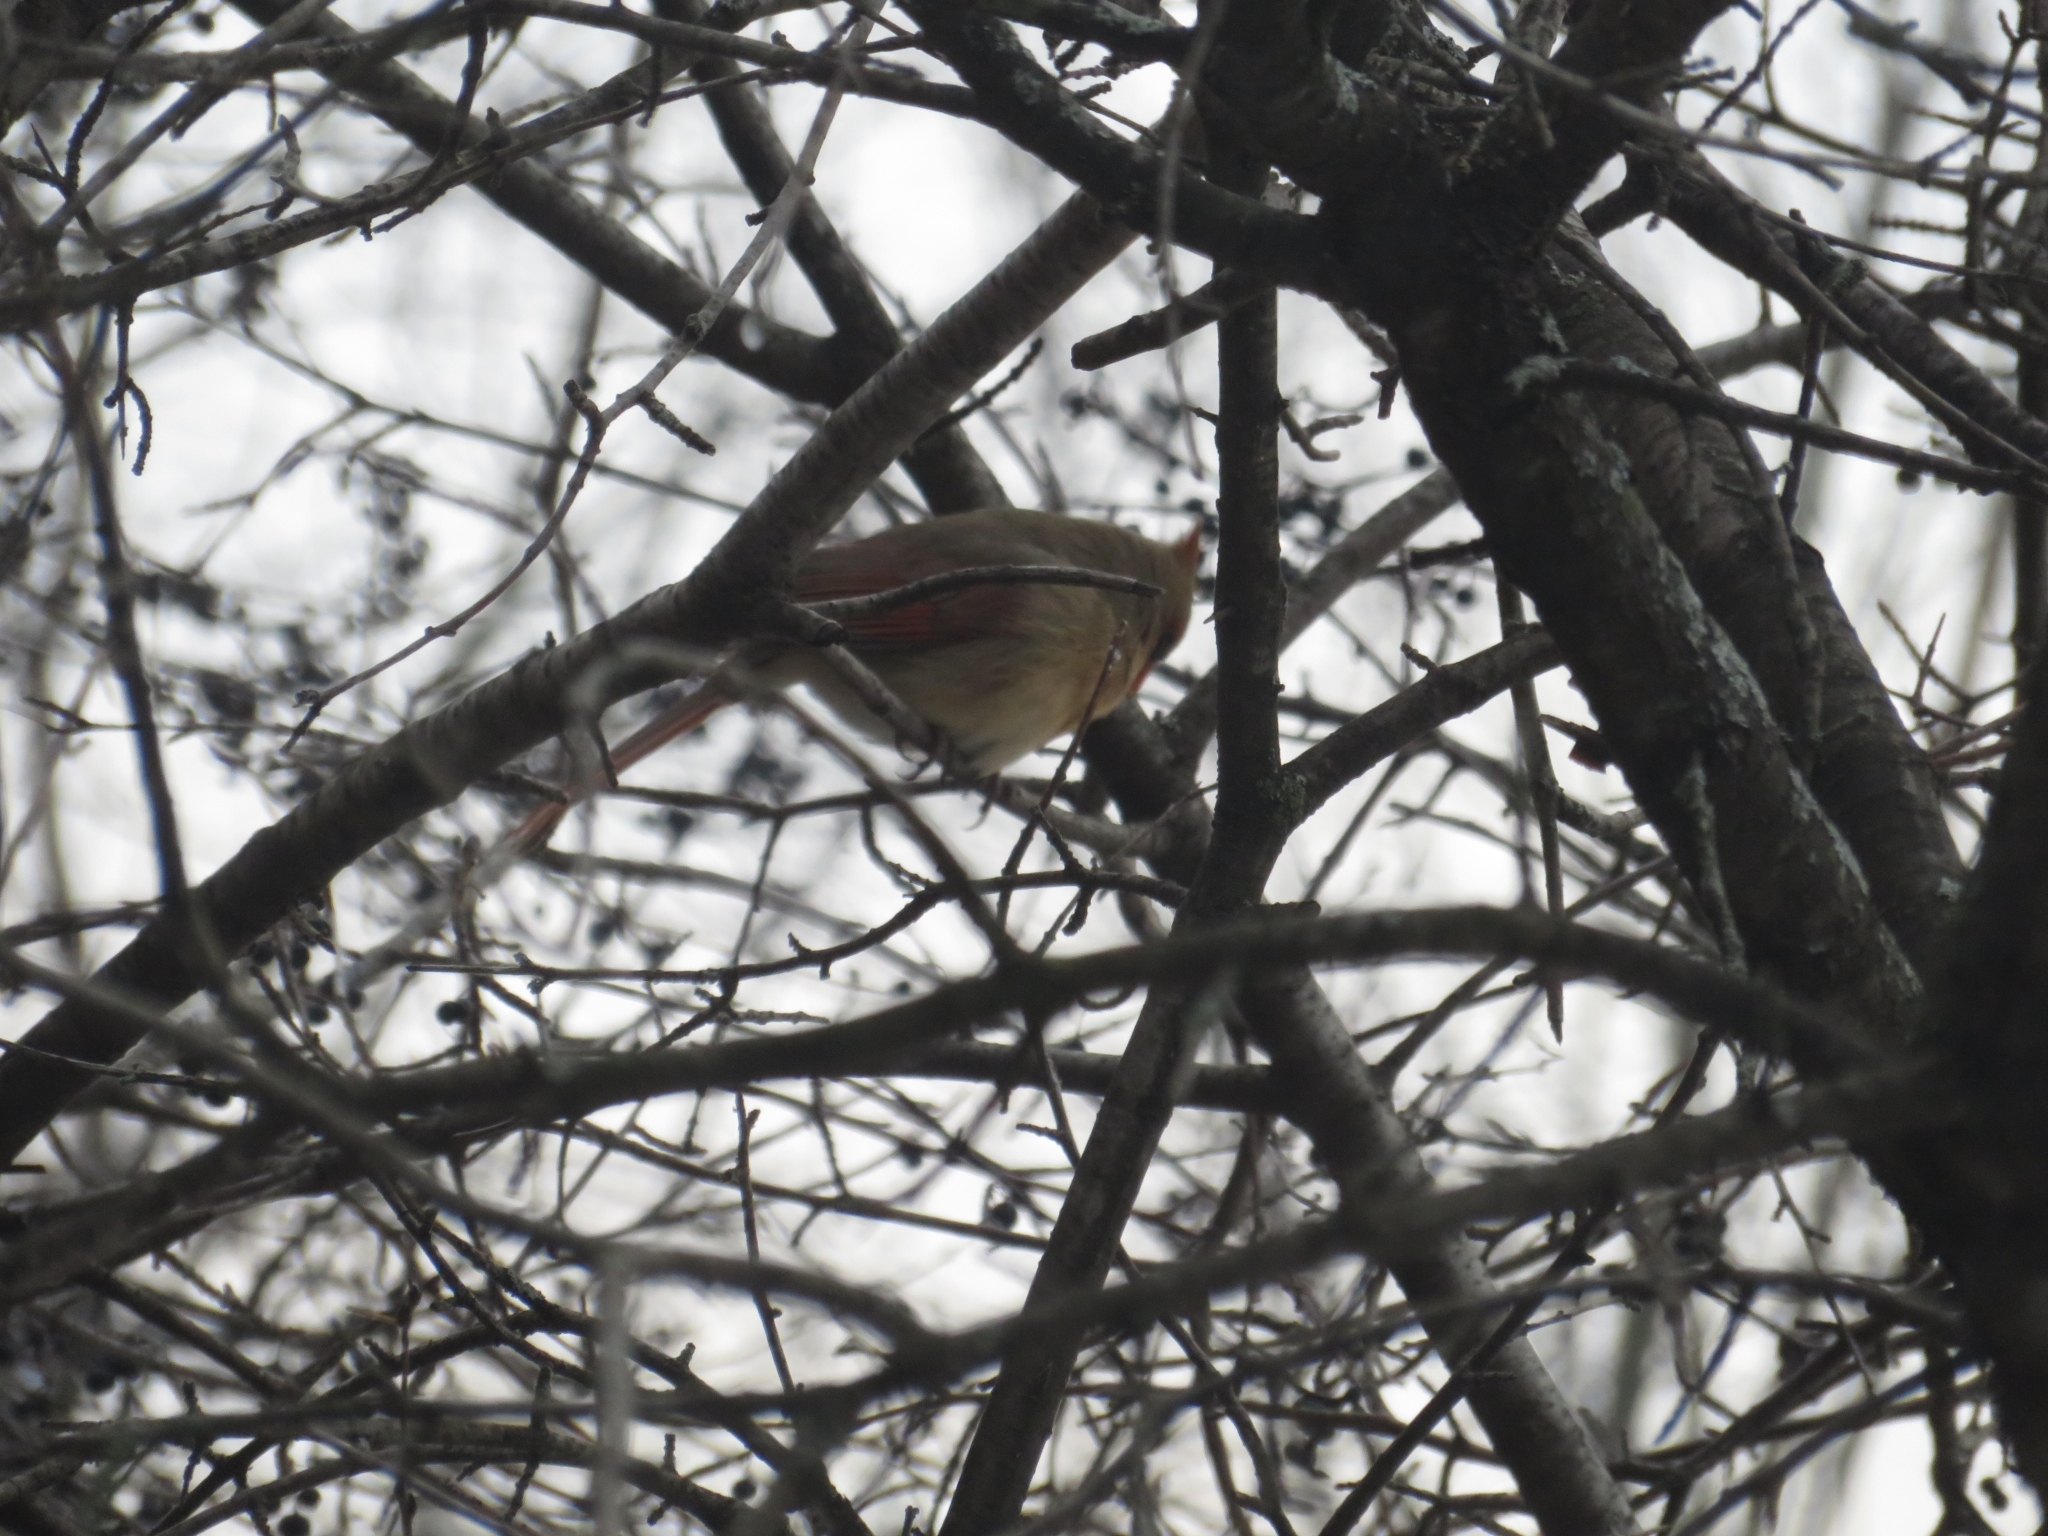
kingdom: Animalia
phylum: Chordata
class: Aves
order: Passeriformes
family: Cardinalidae
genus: Cardinalis
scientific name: Cardinalis cardinalis
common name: Northern cardinal
